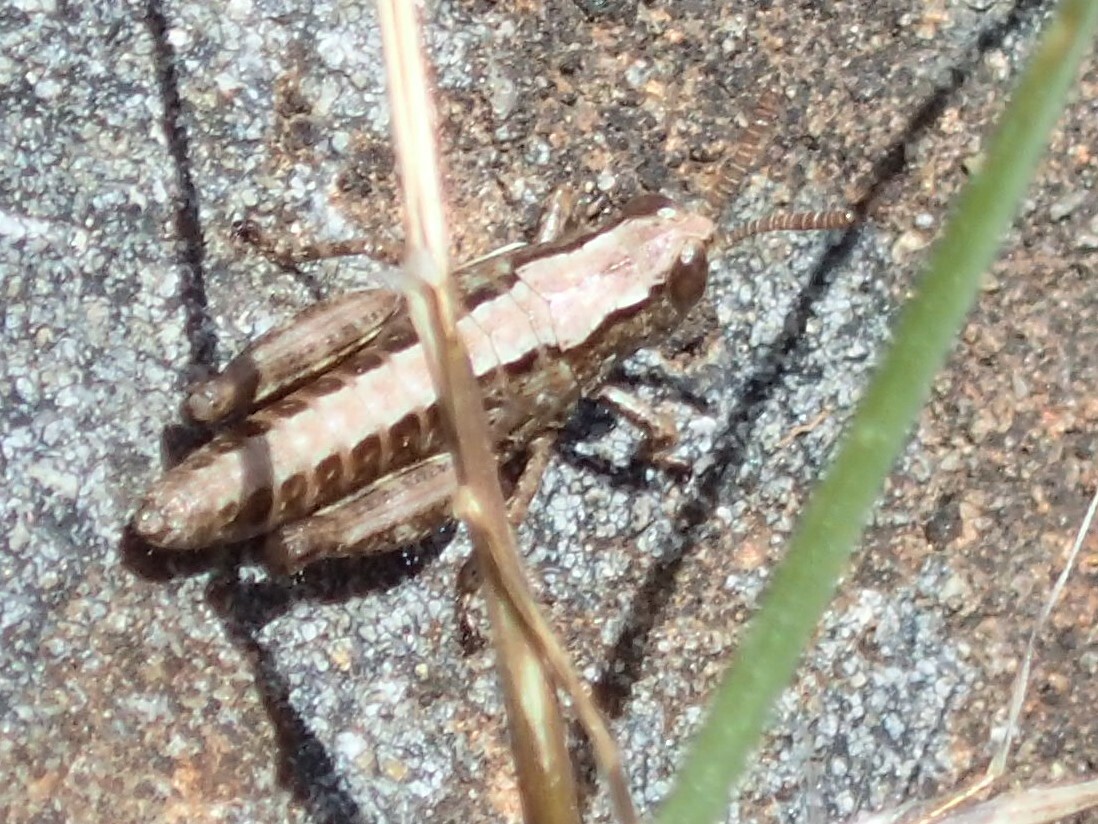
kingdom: Animalia
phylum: Arthropoda
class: Insecta
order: Orthoptera
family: Acrididae
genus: Tasmaniacris
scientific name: Tasmaniacris tasmaniensis
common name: Tasmanian grasshopper
